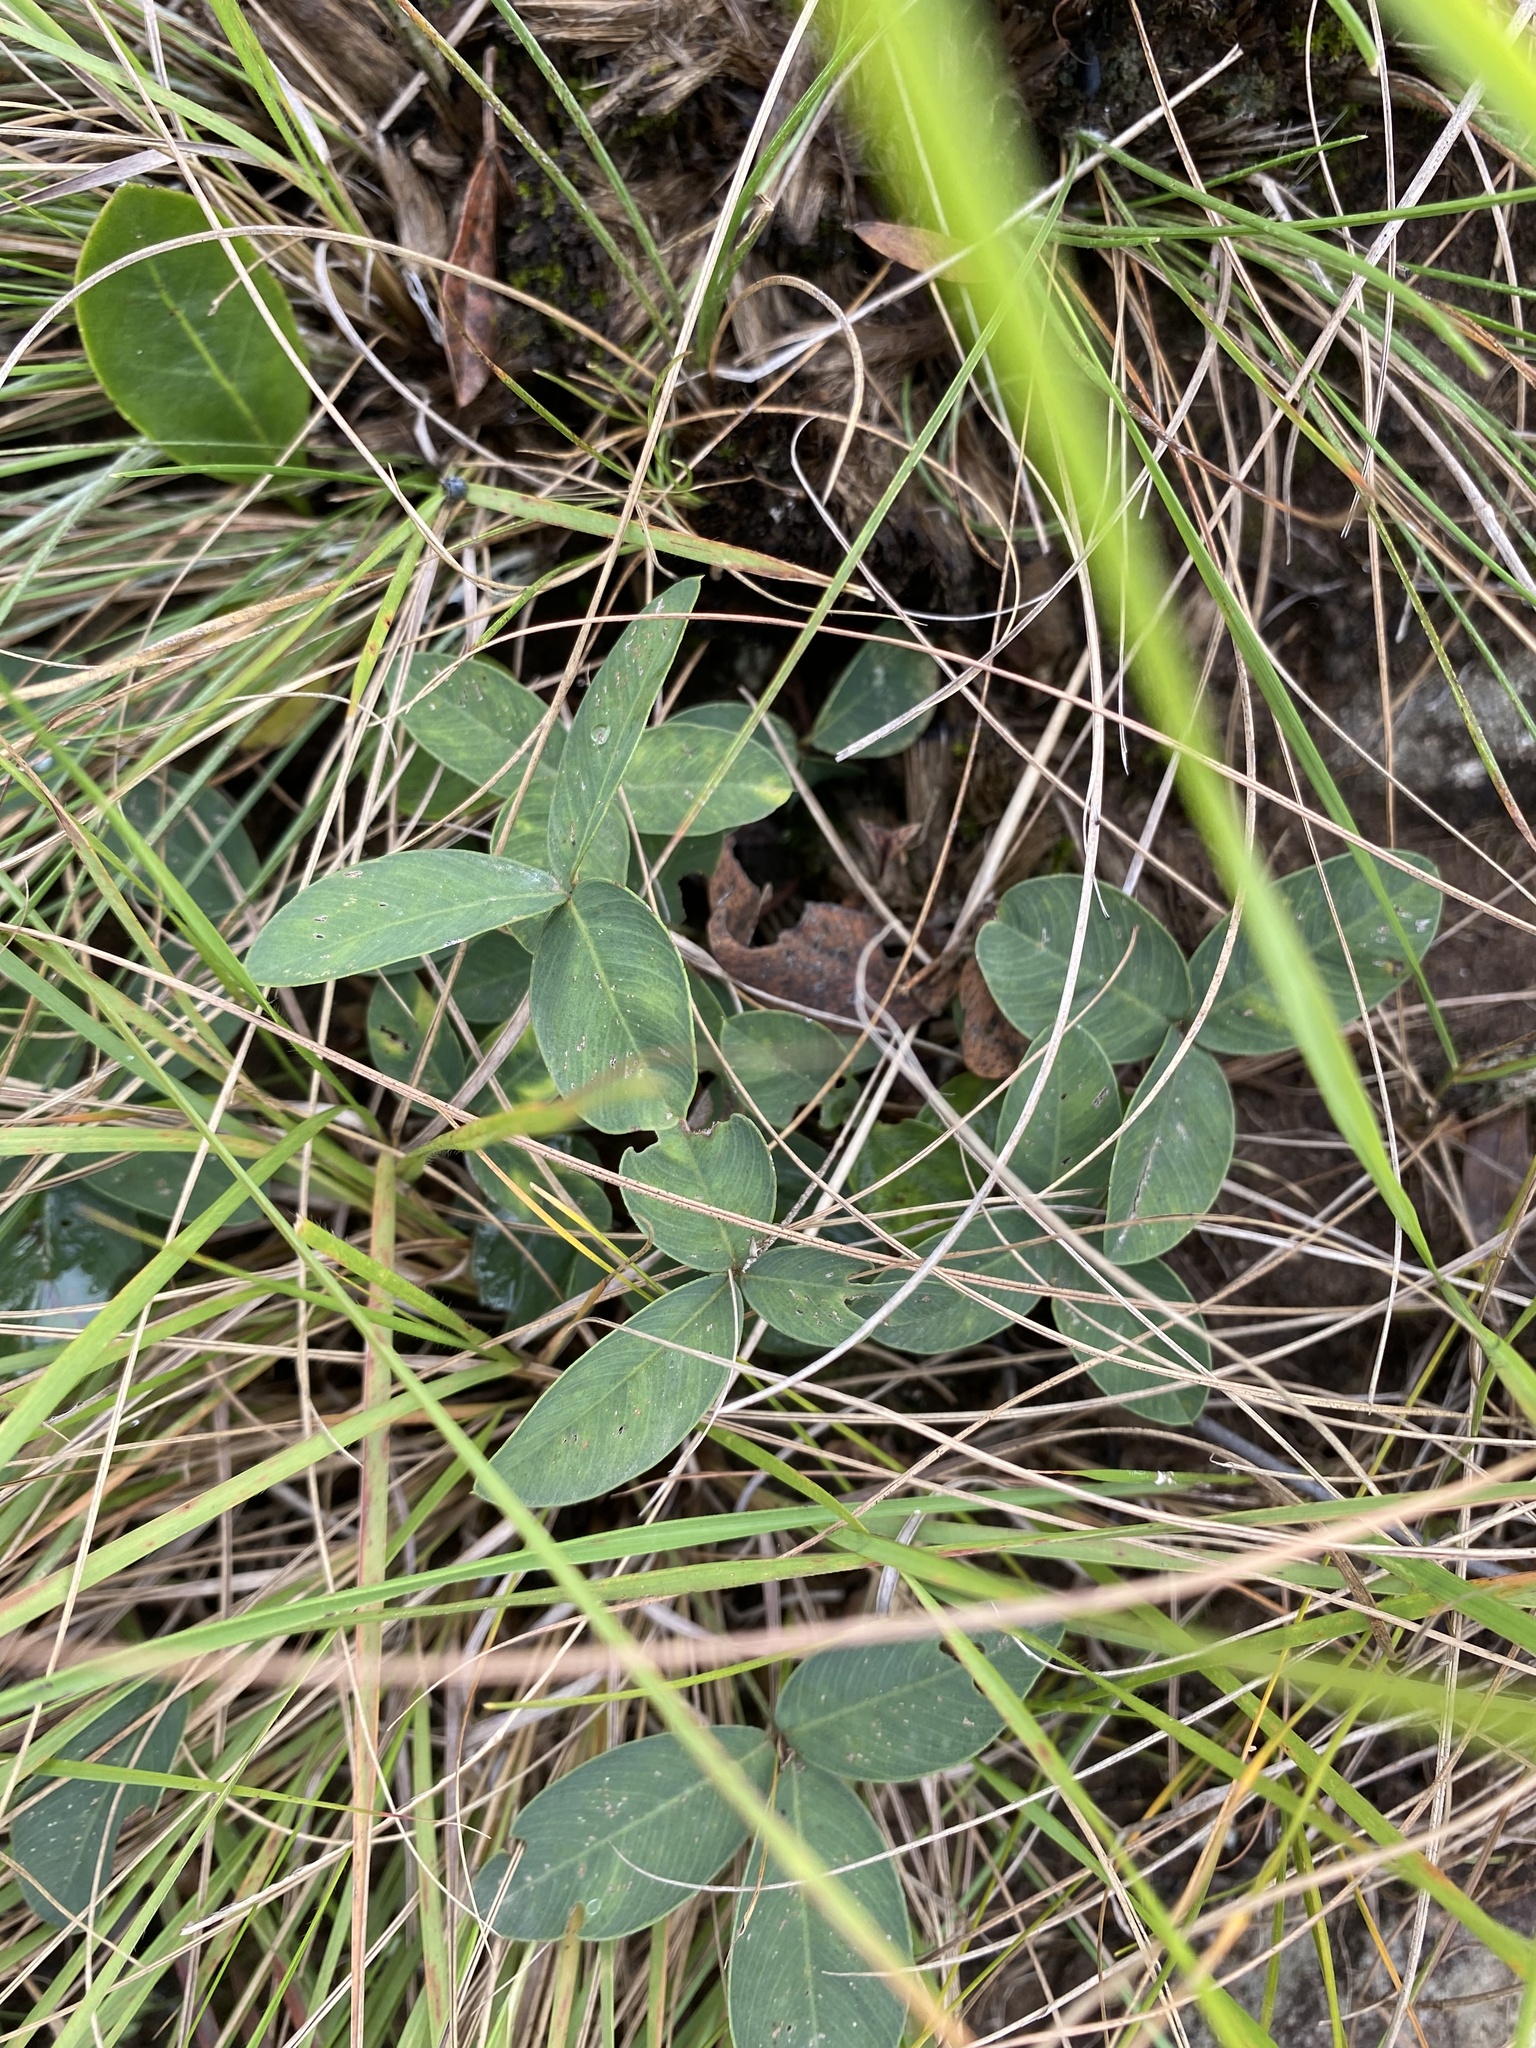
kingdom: Plantae
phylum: Tracheophyta
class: Magnoliopsida
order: Fabales
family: Fabaceae
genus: Tephrosia
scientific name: Tephrosia macropoda
